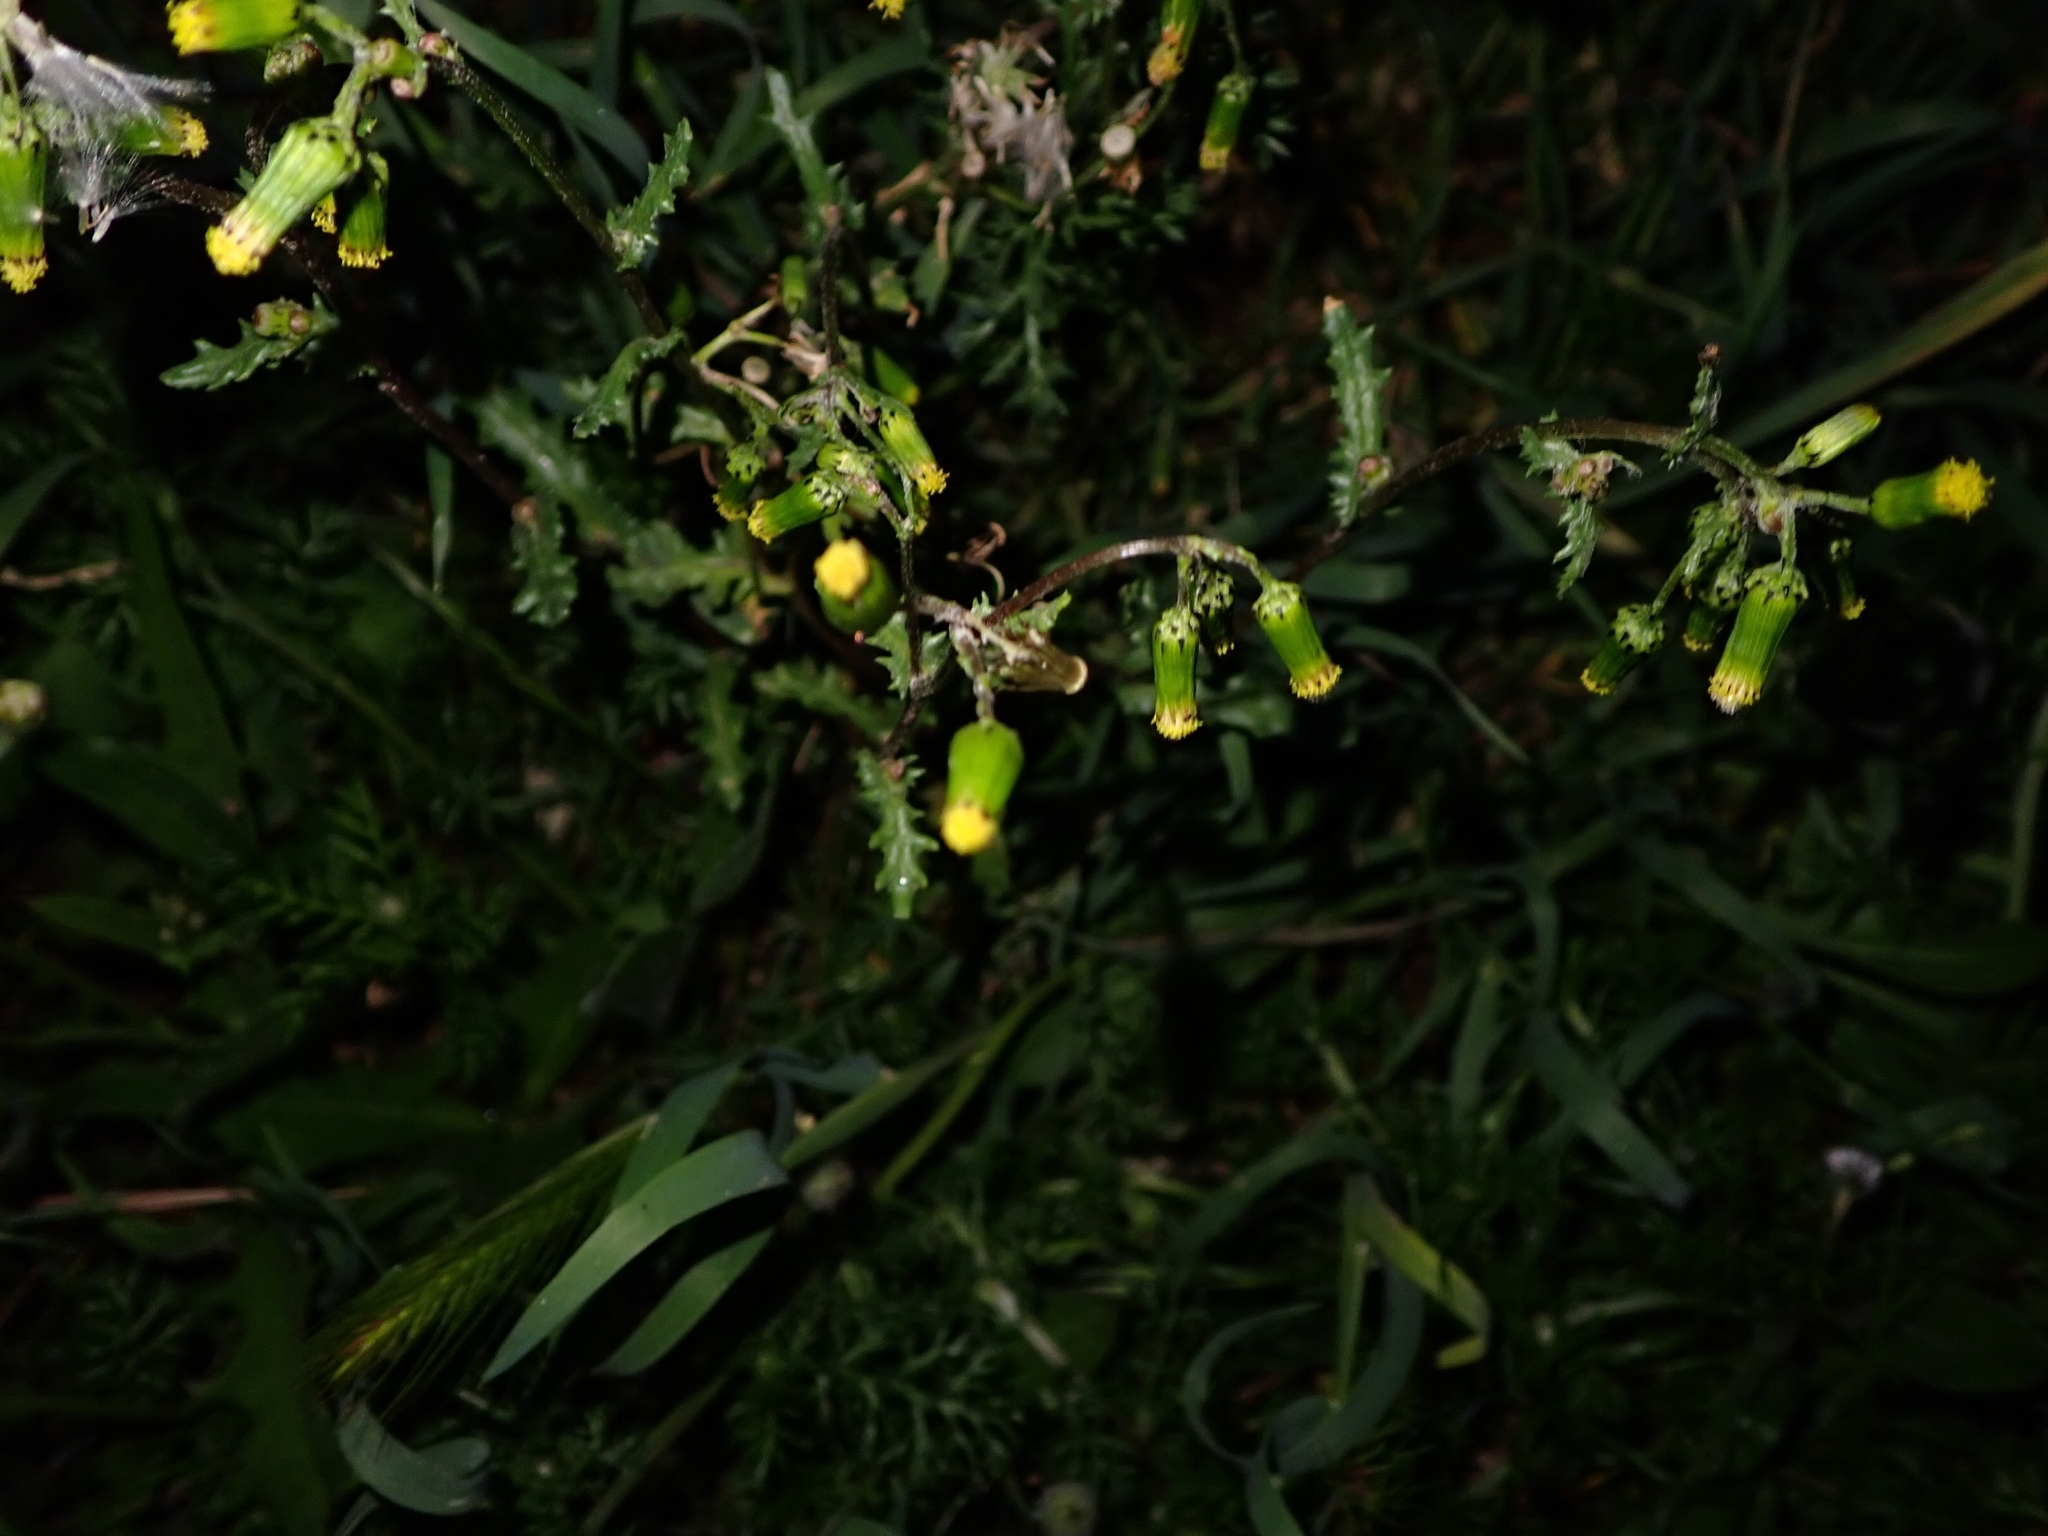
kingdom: Plantae
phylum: Tracheophyta
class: Magnoliopsida
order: Asterales
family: Asteraceae
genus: Senecio
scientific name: Senecio vulgaris
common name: Old-man-in-the-spring
